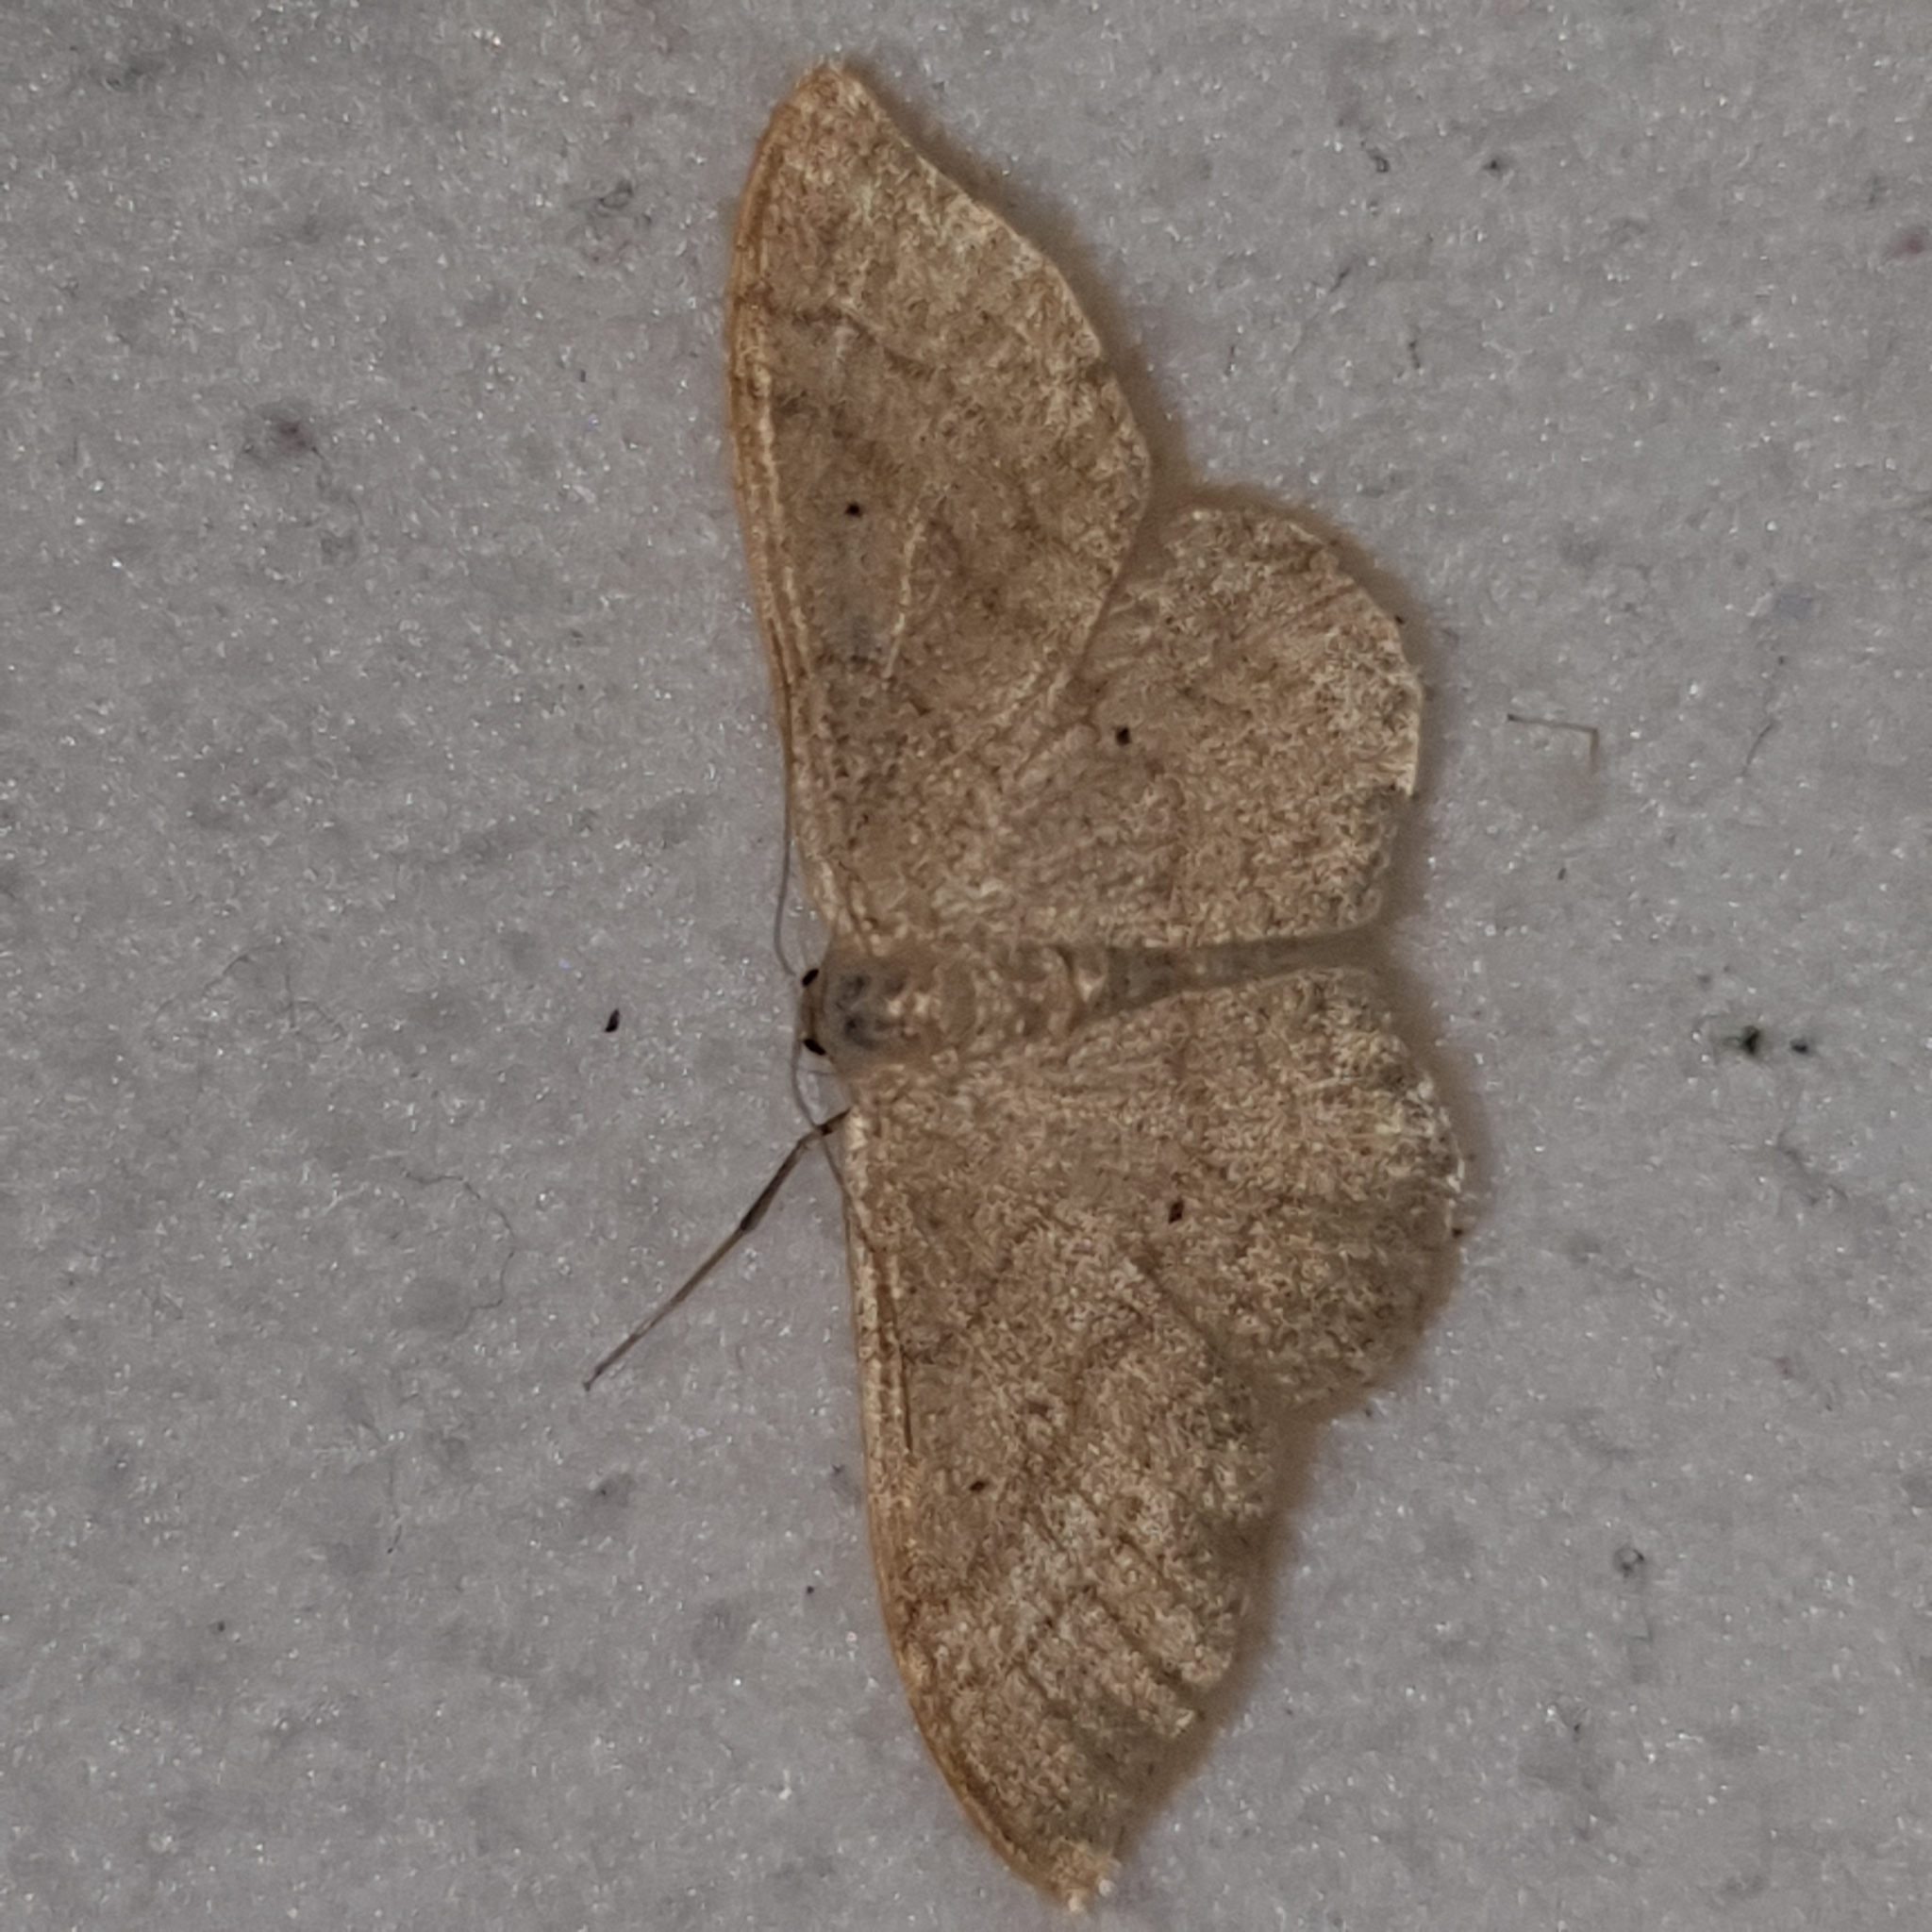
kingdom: Animalia
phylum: Arthropoda
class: Insecta
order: Lepidoptera
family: Geometridae
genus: Idaea
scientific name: Idaea straminata
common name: Plain wave
